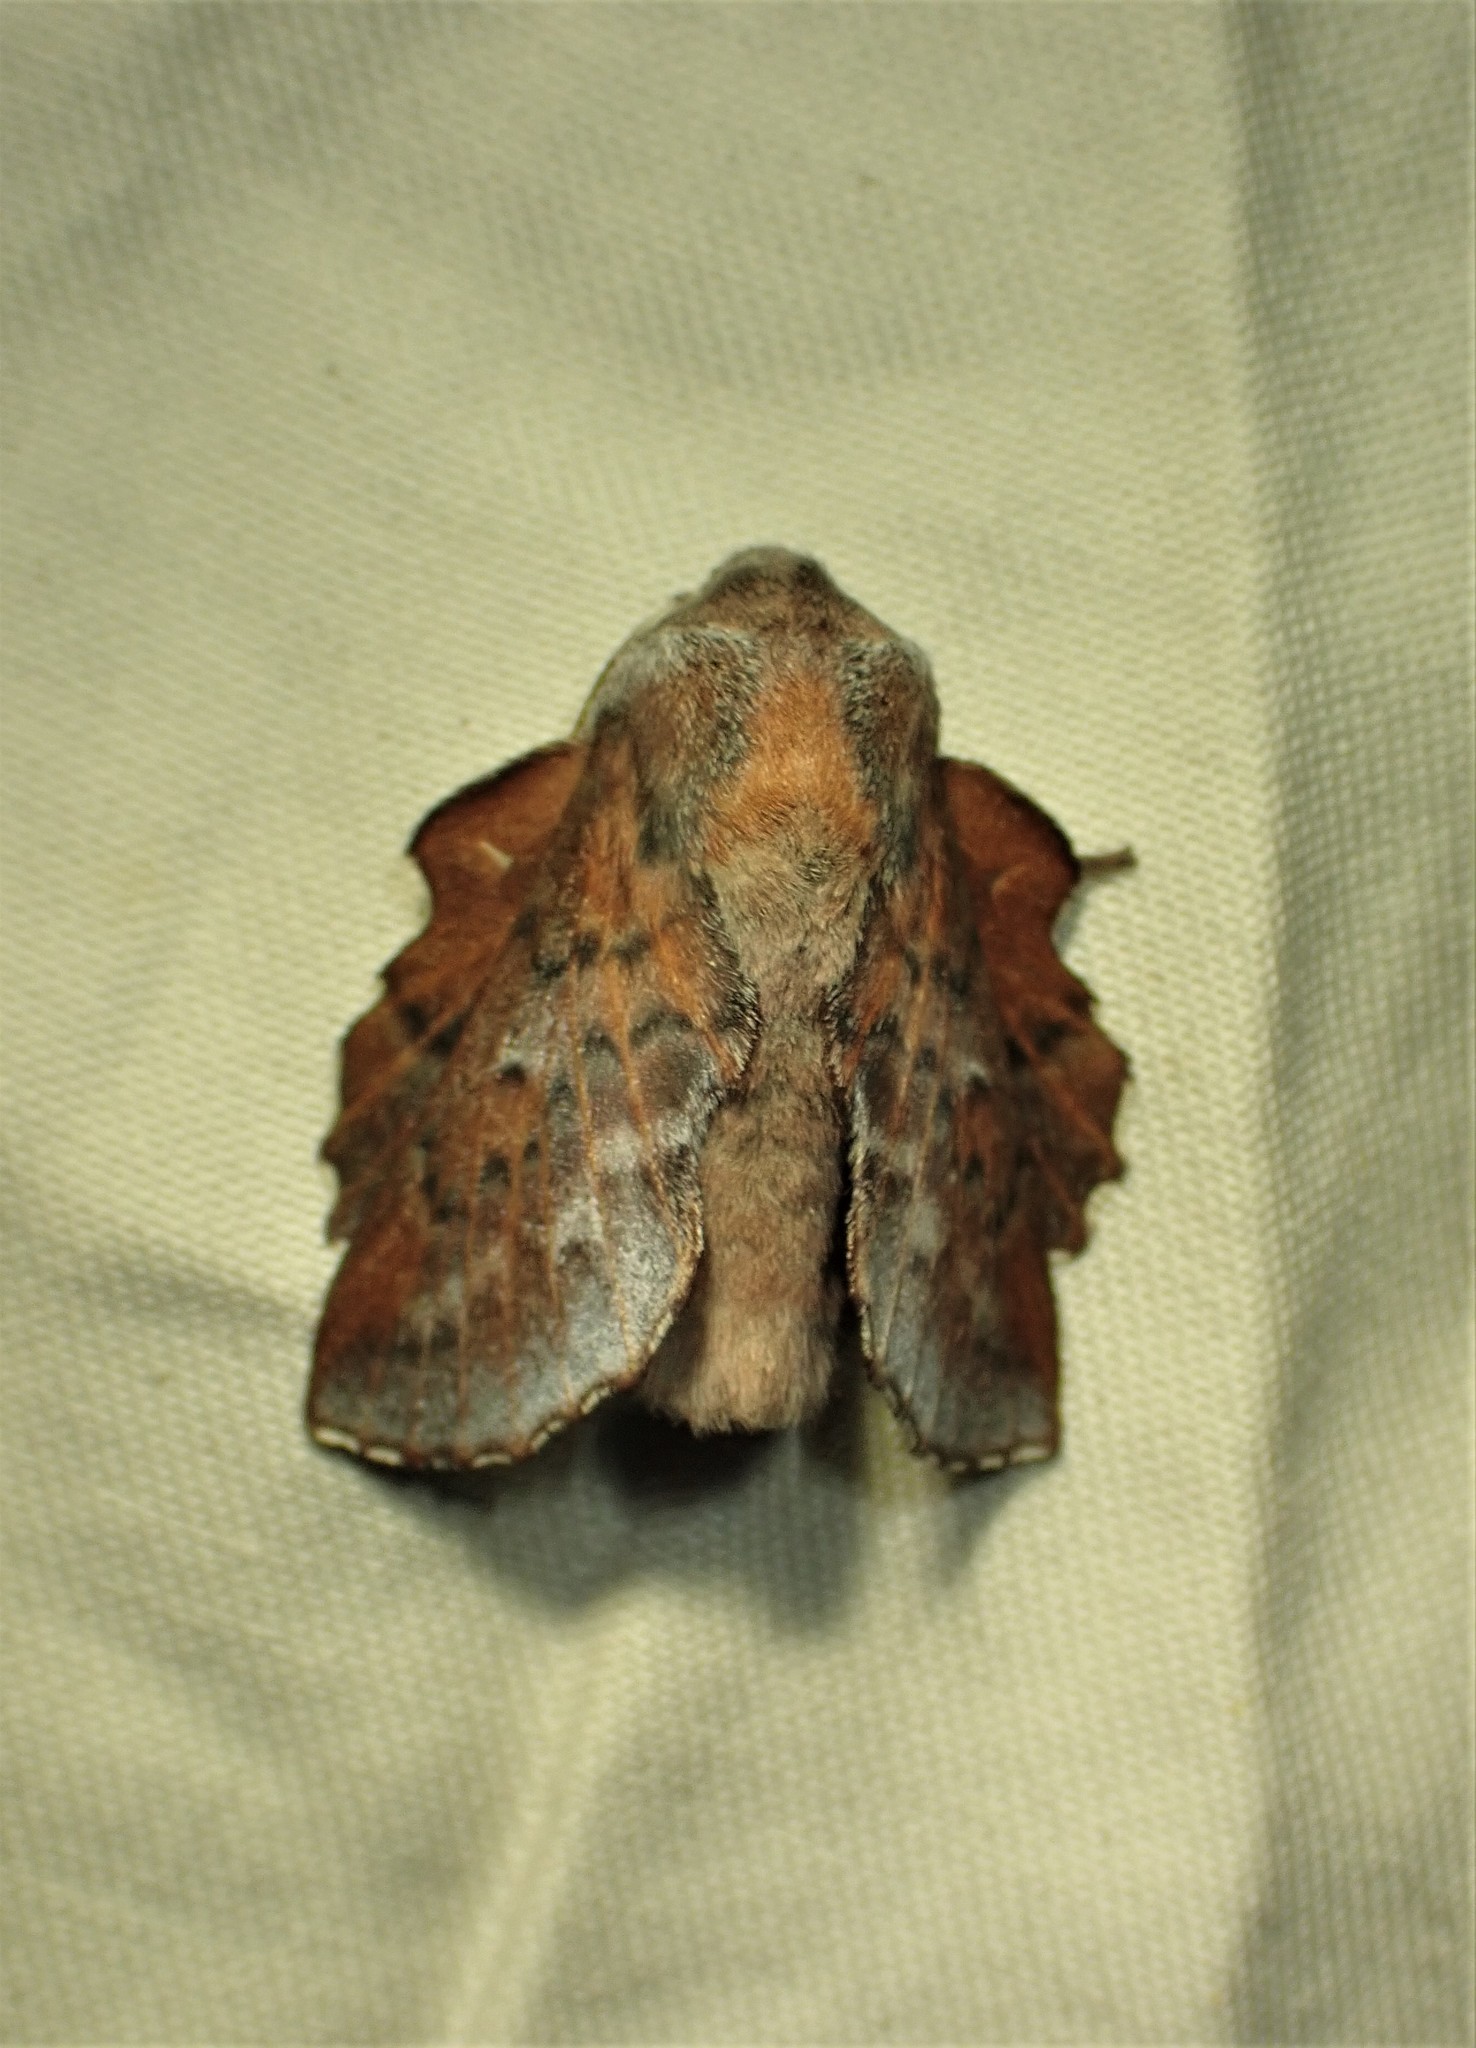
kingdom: Animalia
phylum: Arthropoda
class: Insecta
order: Lepidoptera
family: Lasiocampidae
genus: Phyllodesma
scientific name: Phyllodesma americana
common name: American lappet moth
